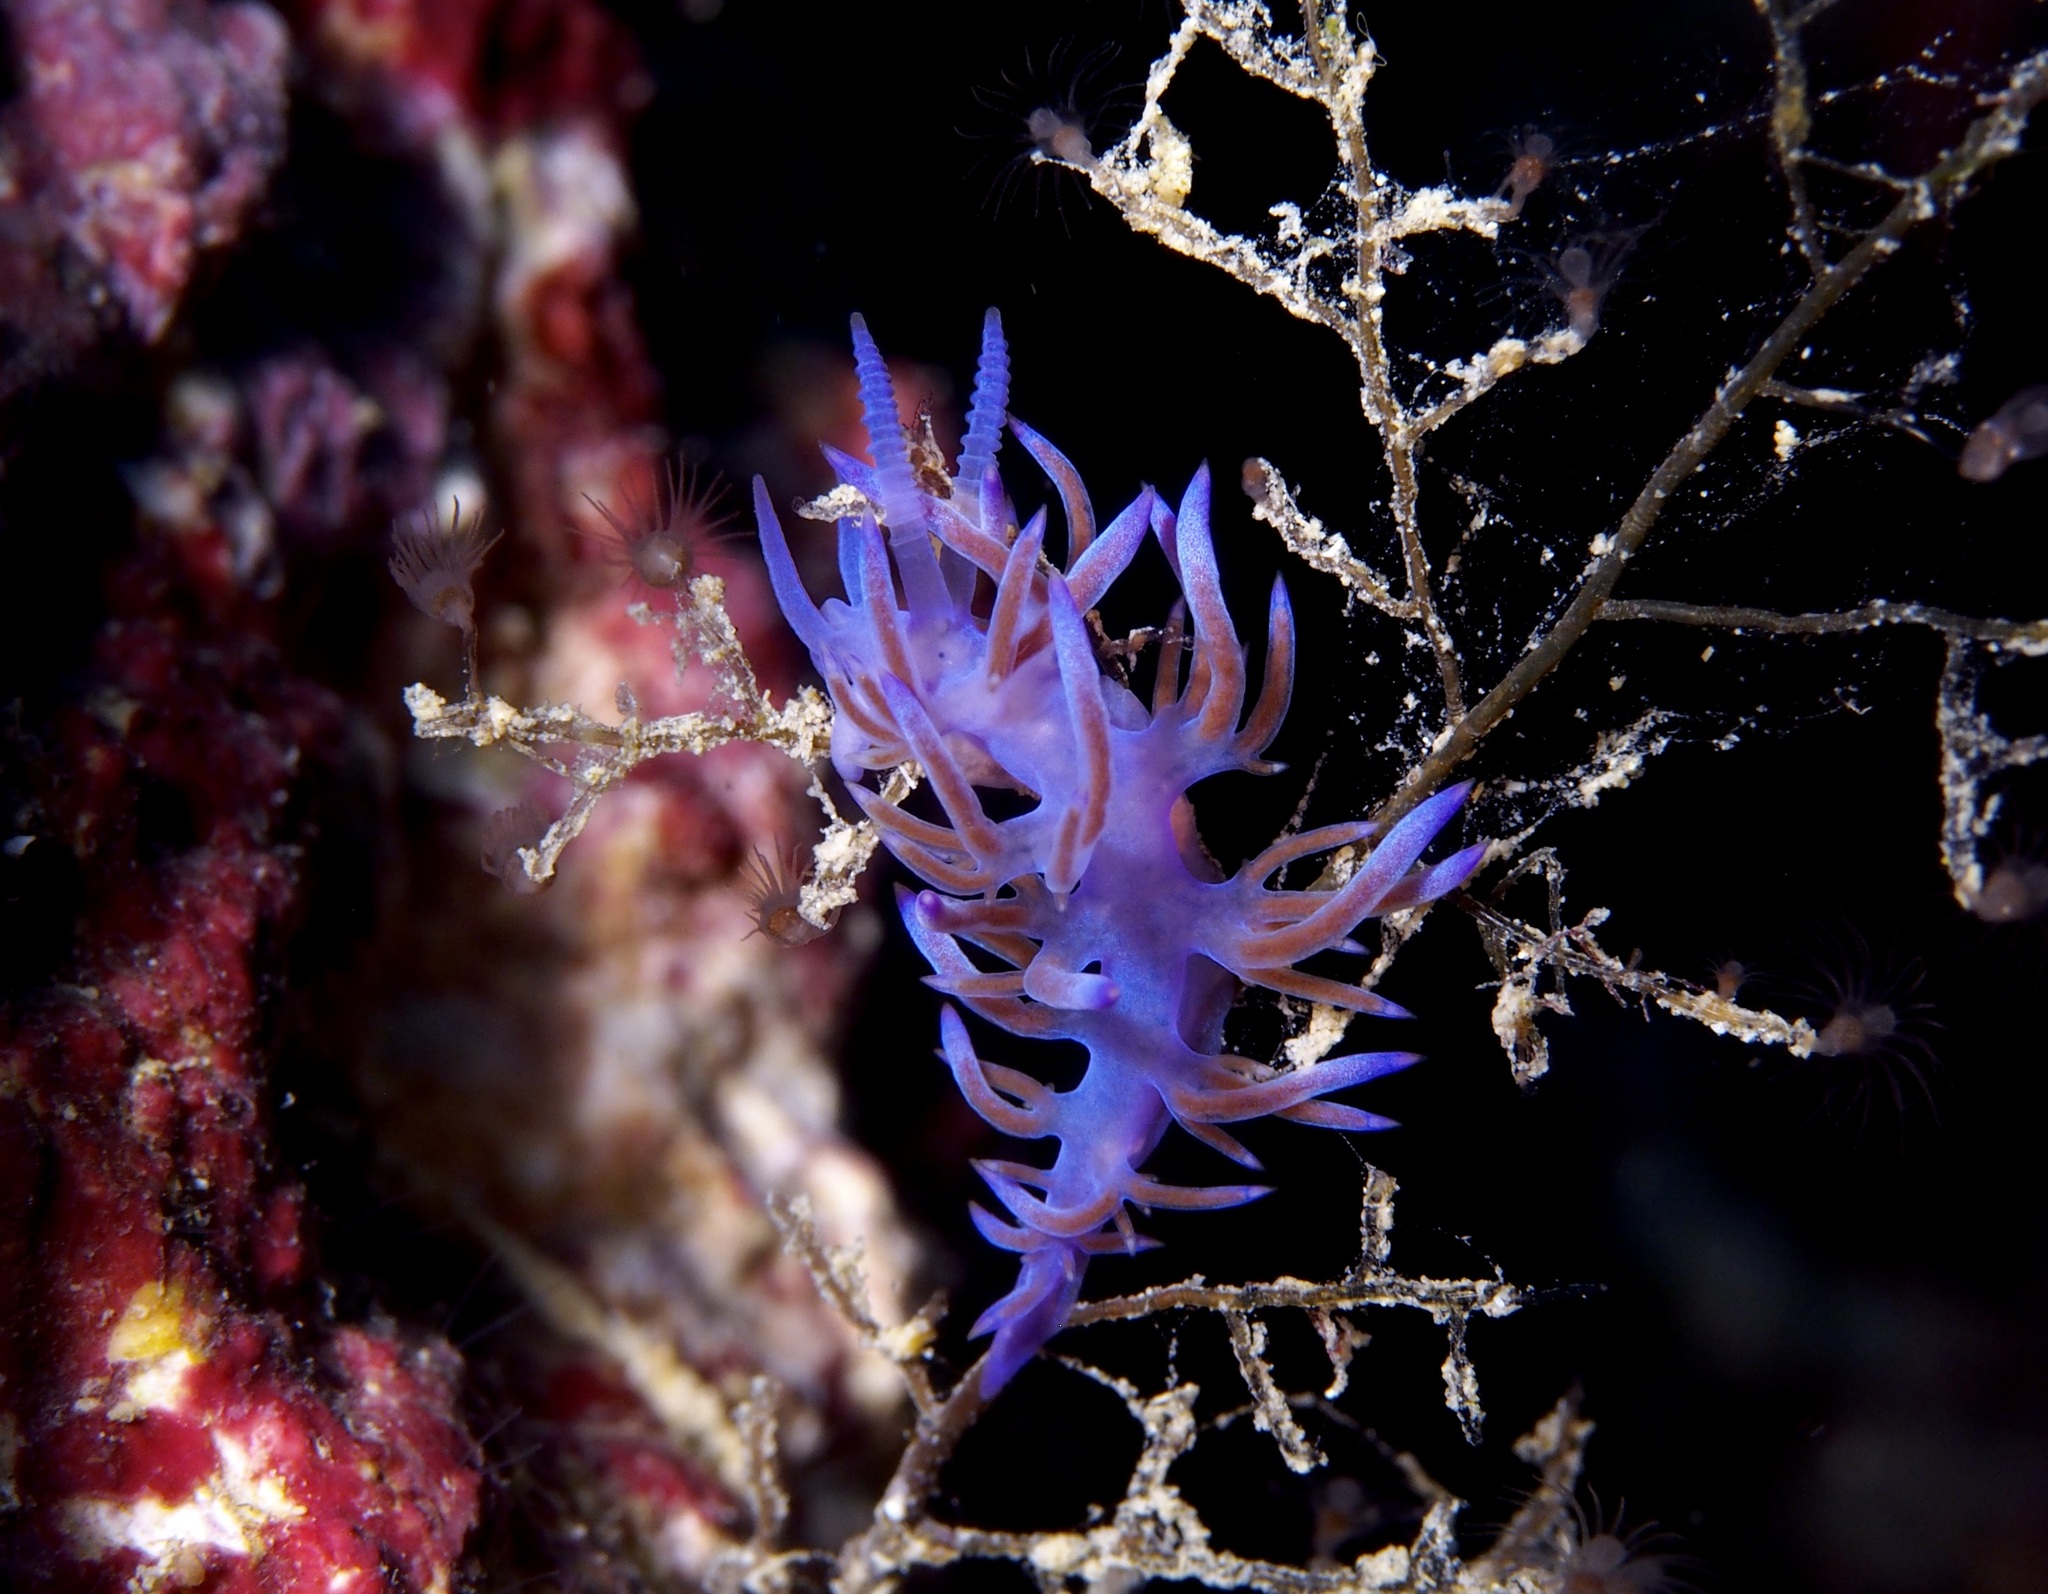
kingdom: Animalia
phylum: Mollusca
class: Gastropoda
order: Nudibranchia
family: Flabellinidae
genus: Flabellina
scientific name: Flabellina affinis
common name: Mediterranean violet aeolid
